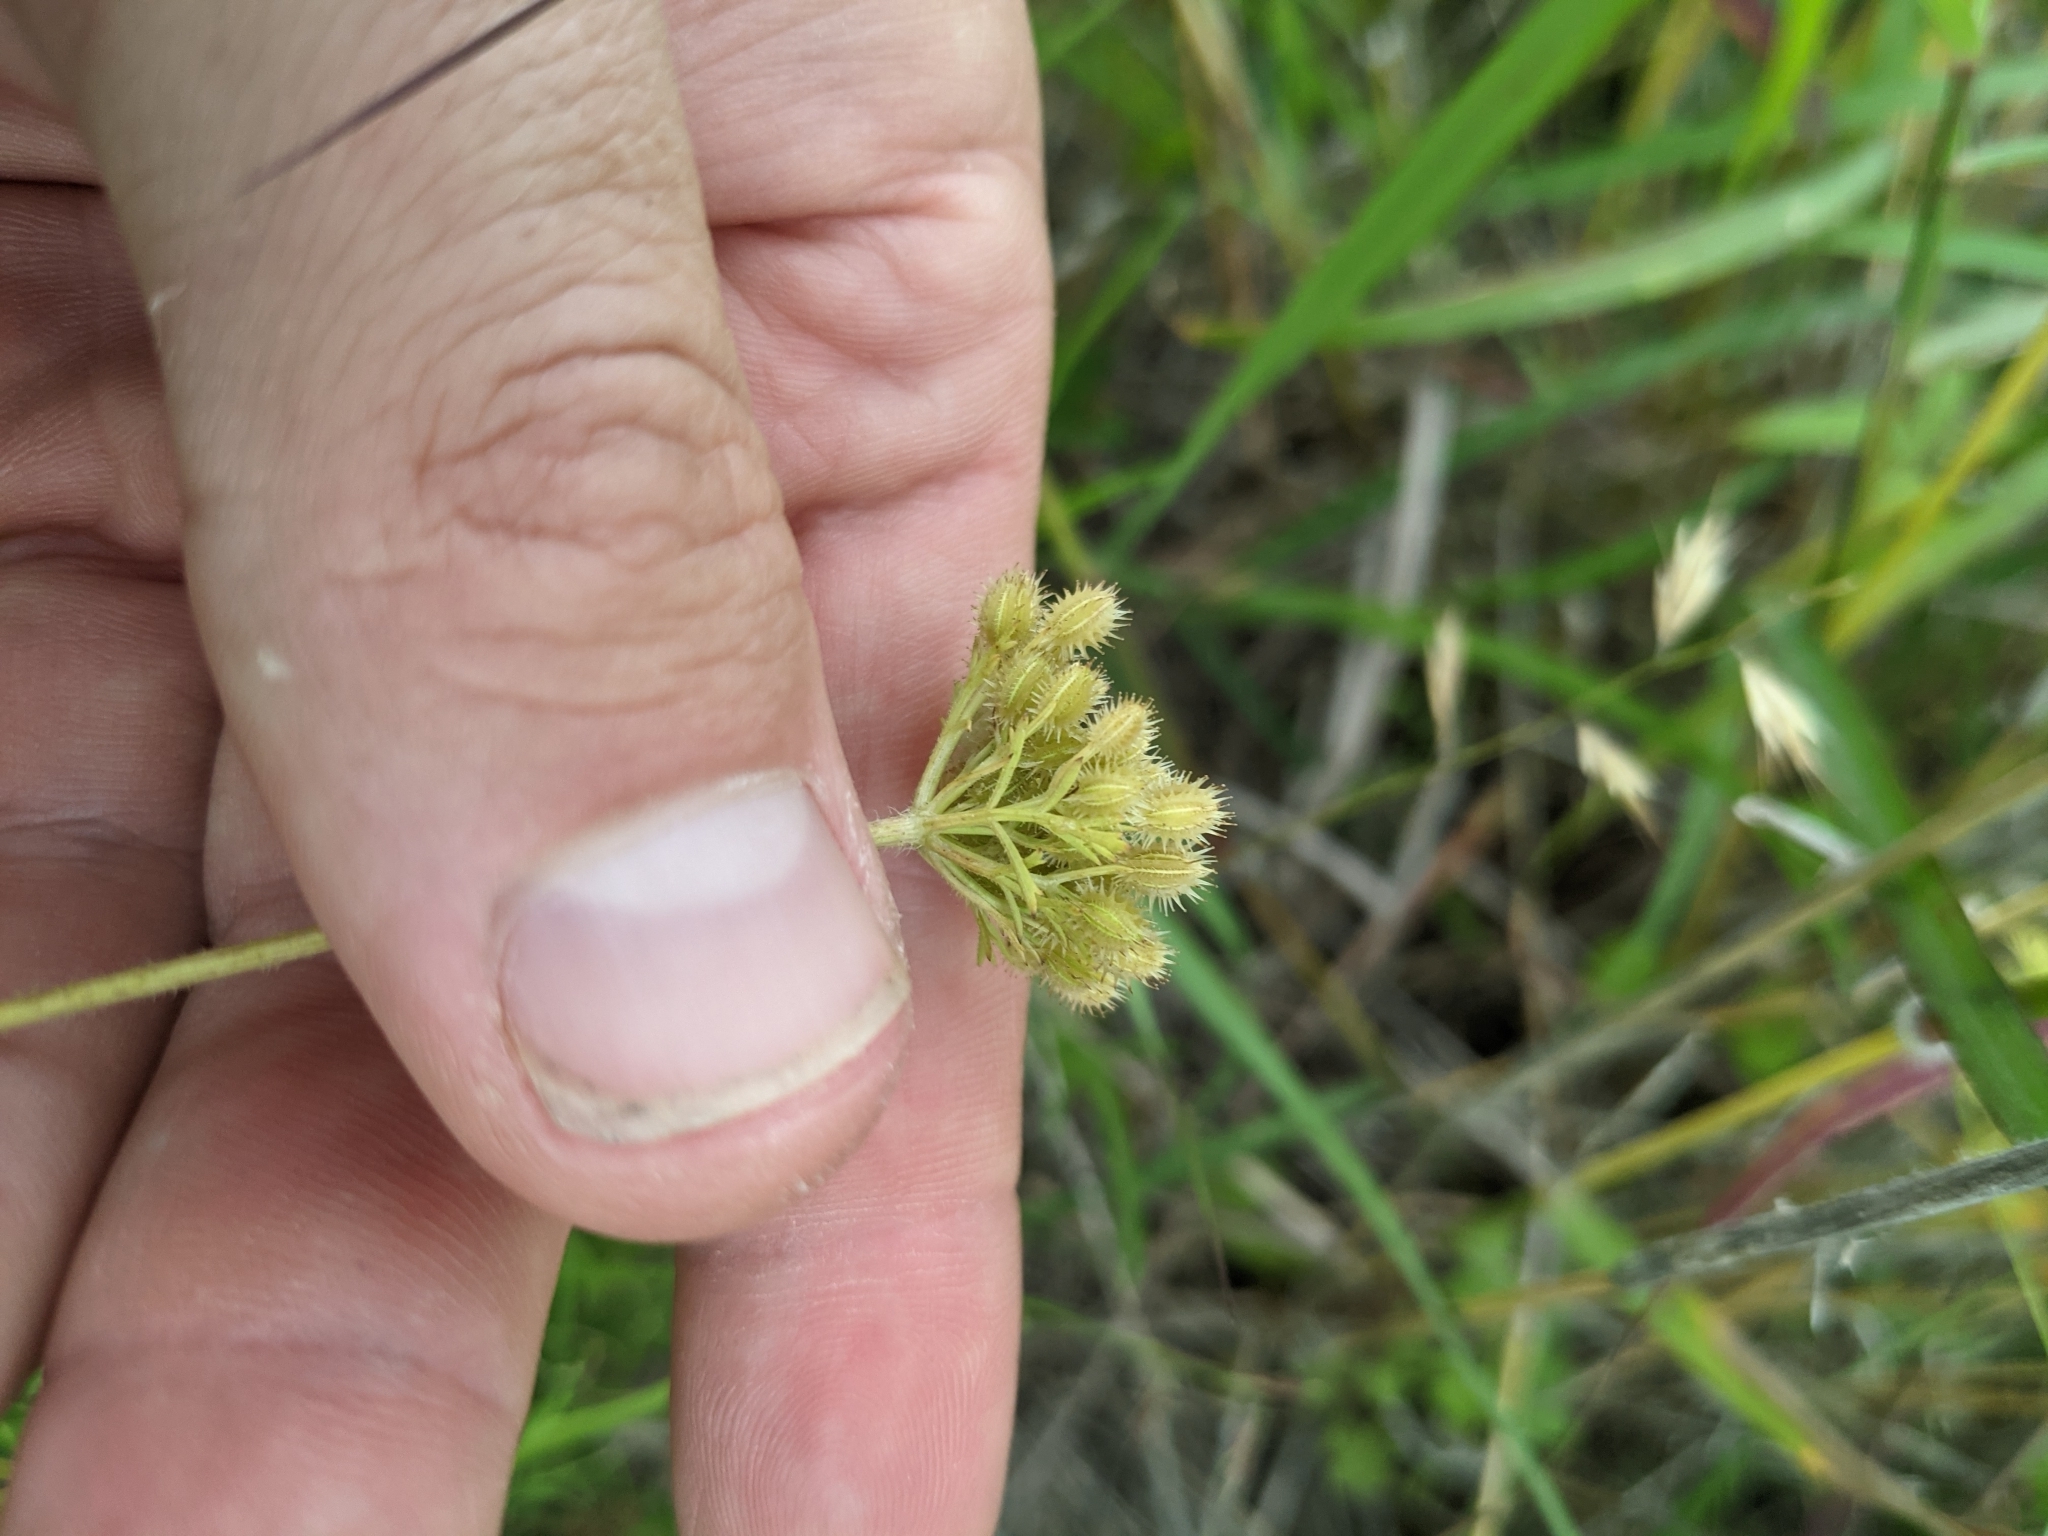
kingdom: Plantae
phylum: Tracheophyta
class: Magnoliopsida
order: Apiales
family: Apiaceae
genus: Daucus
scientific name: Daucus pusillus
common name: Southwest wild carrot
